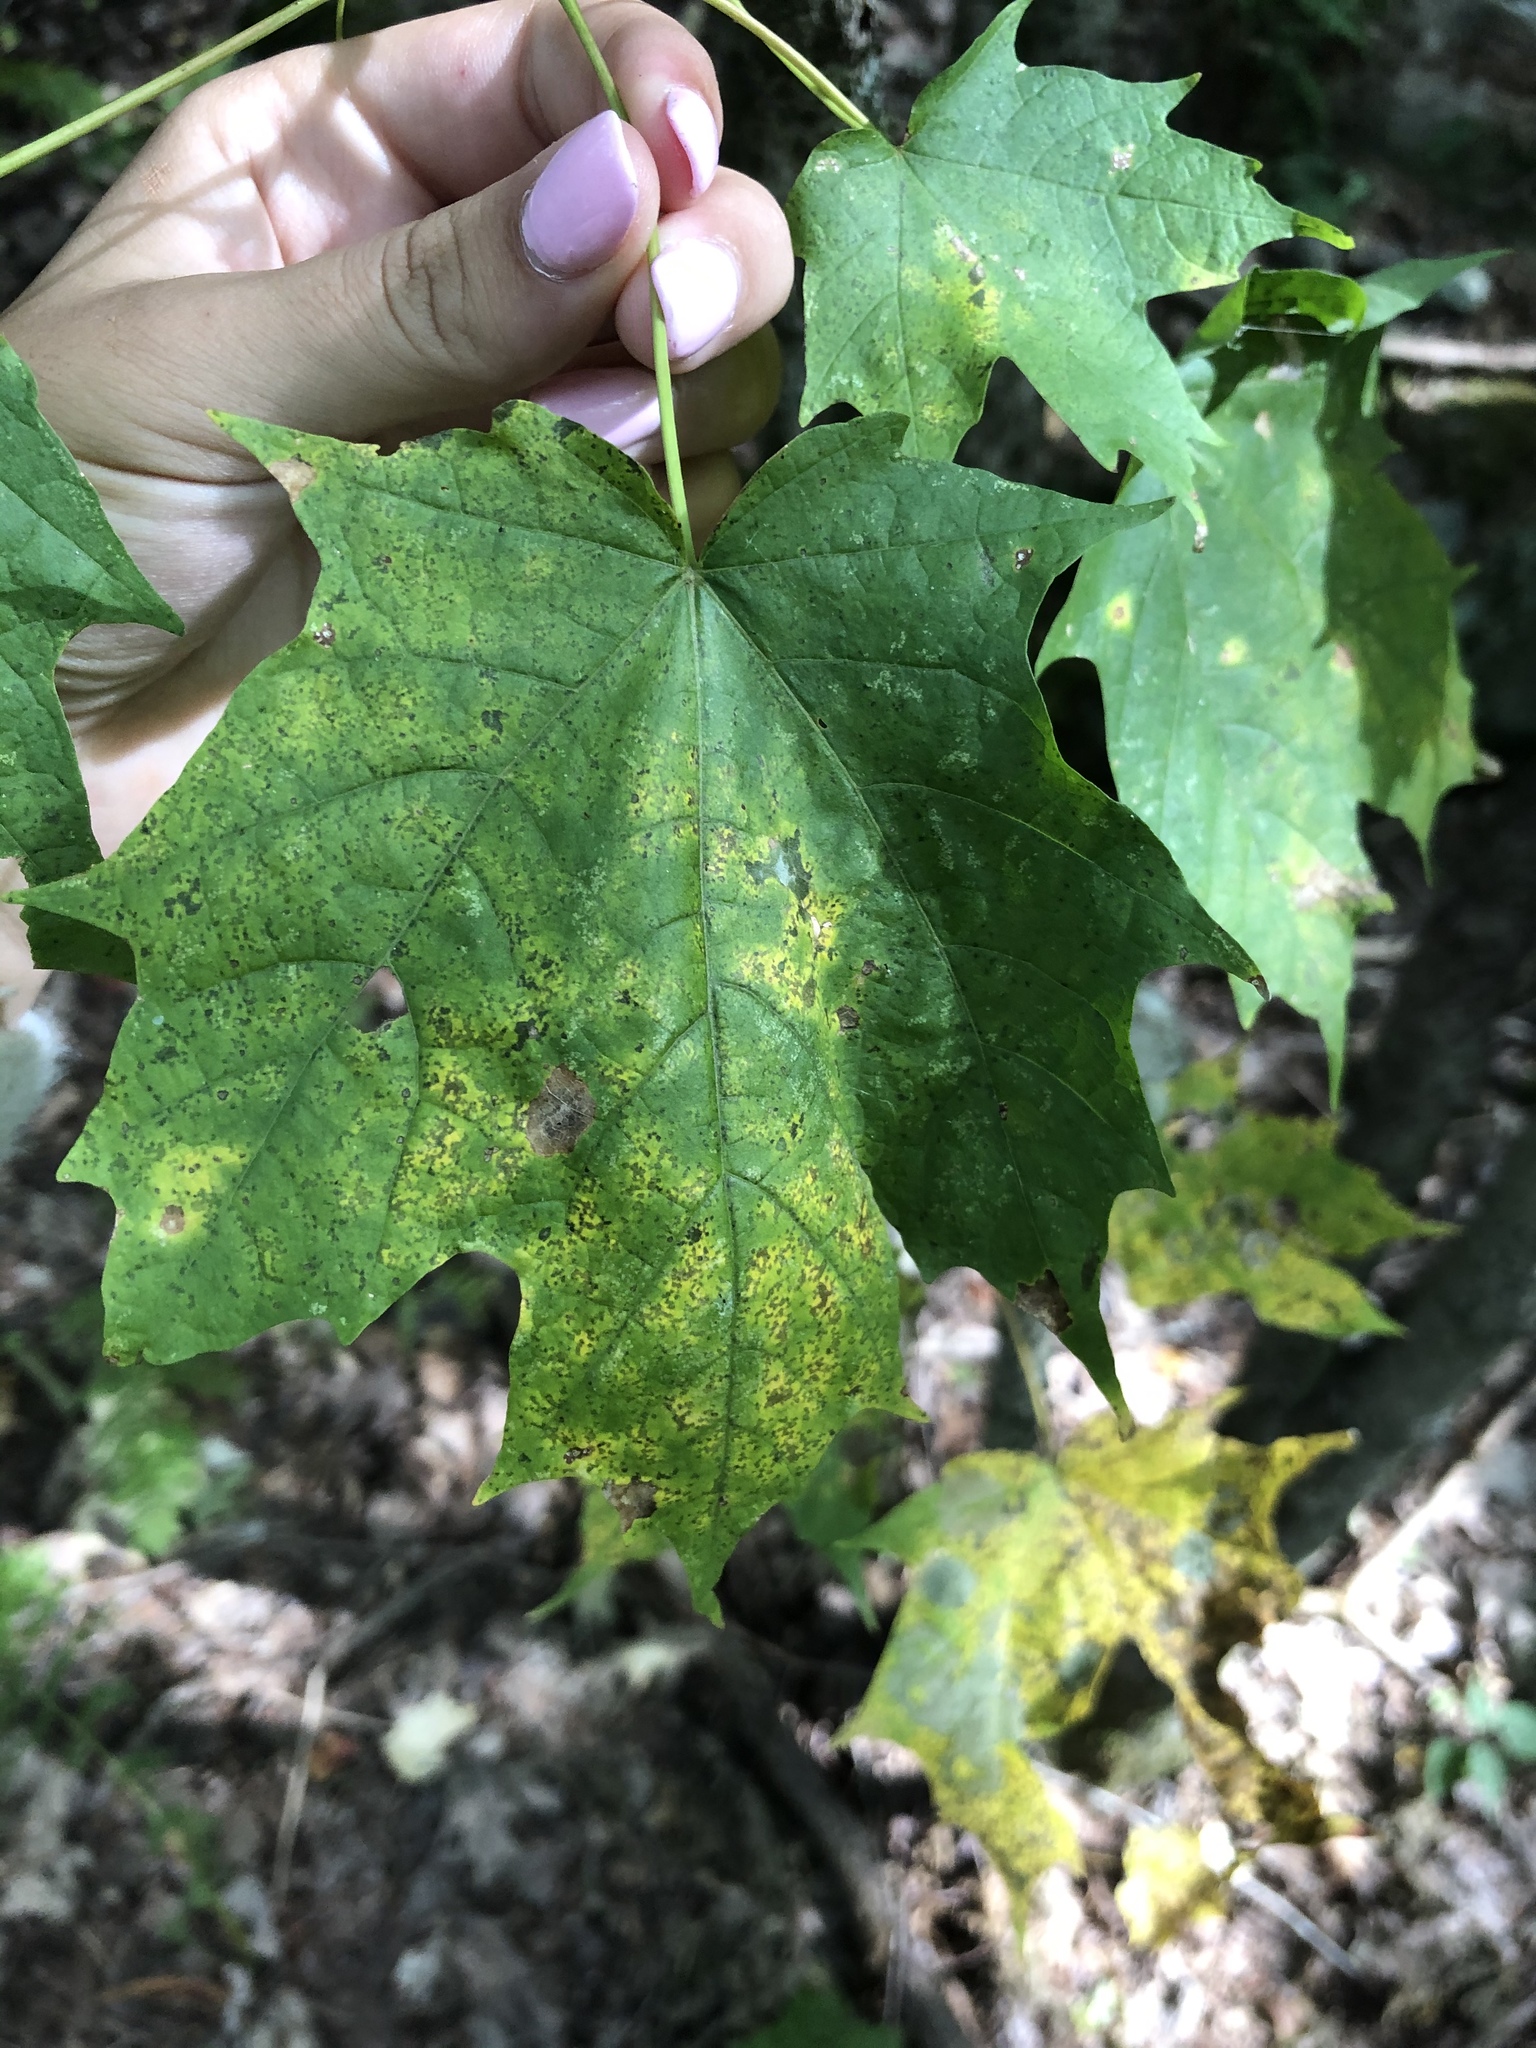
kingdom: Plantae
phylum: Tracheophyta
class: Magnoliopsida
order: Sapindales
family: Sapindaceae
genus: Acer
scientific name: Acer saccharum
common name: Sugar maple
